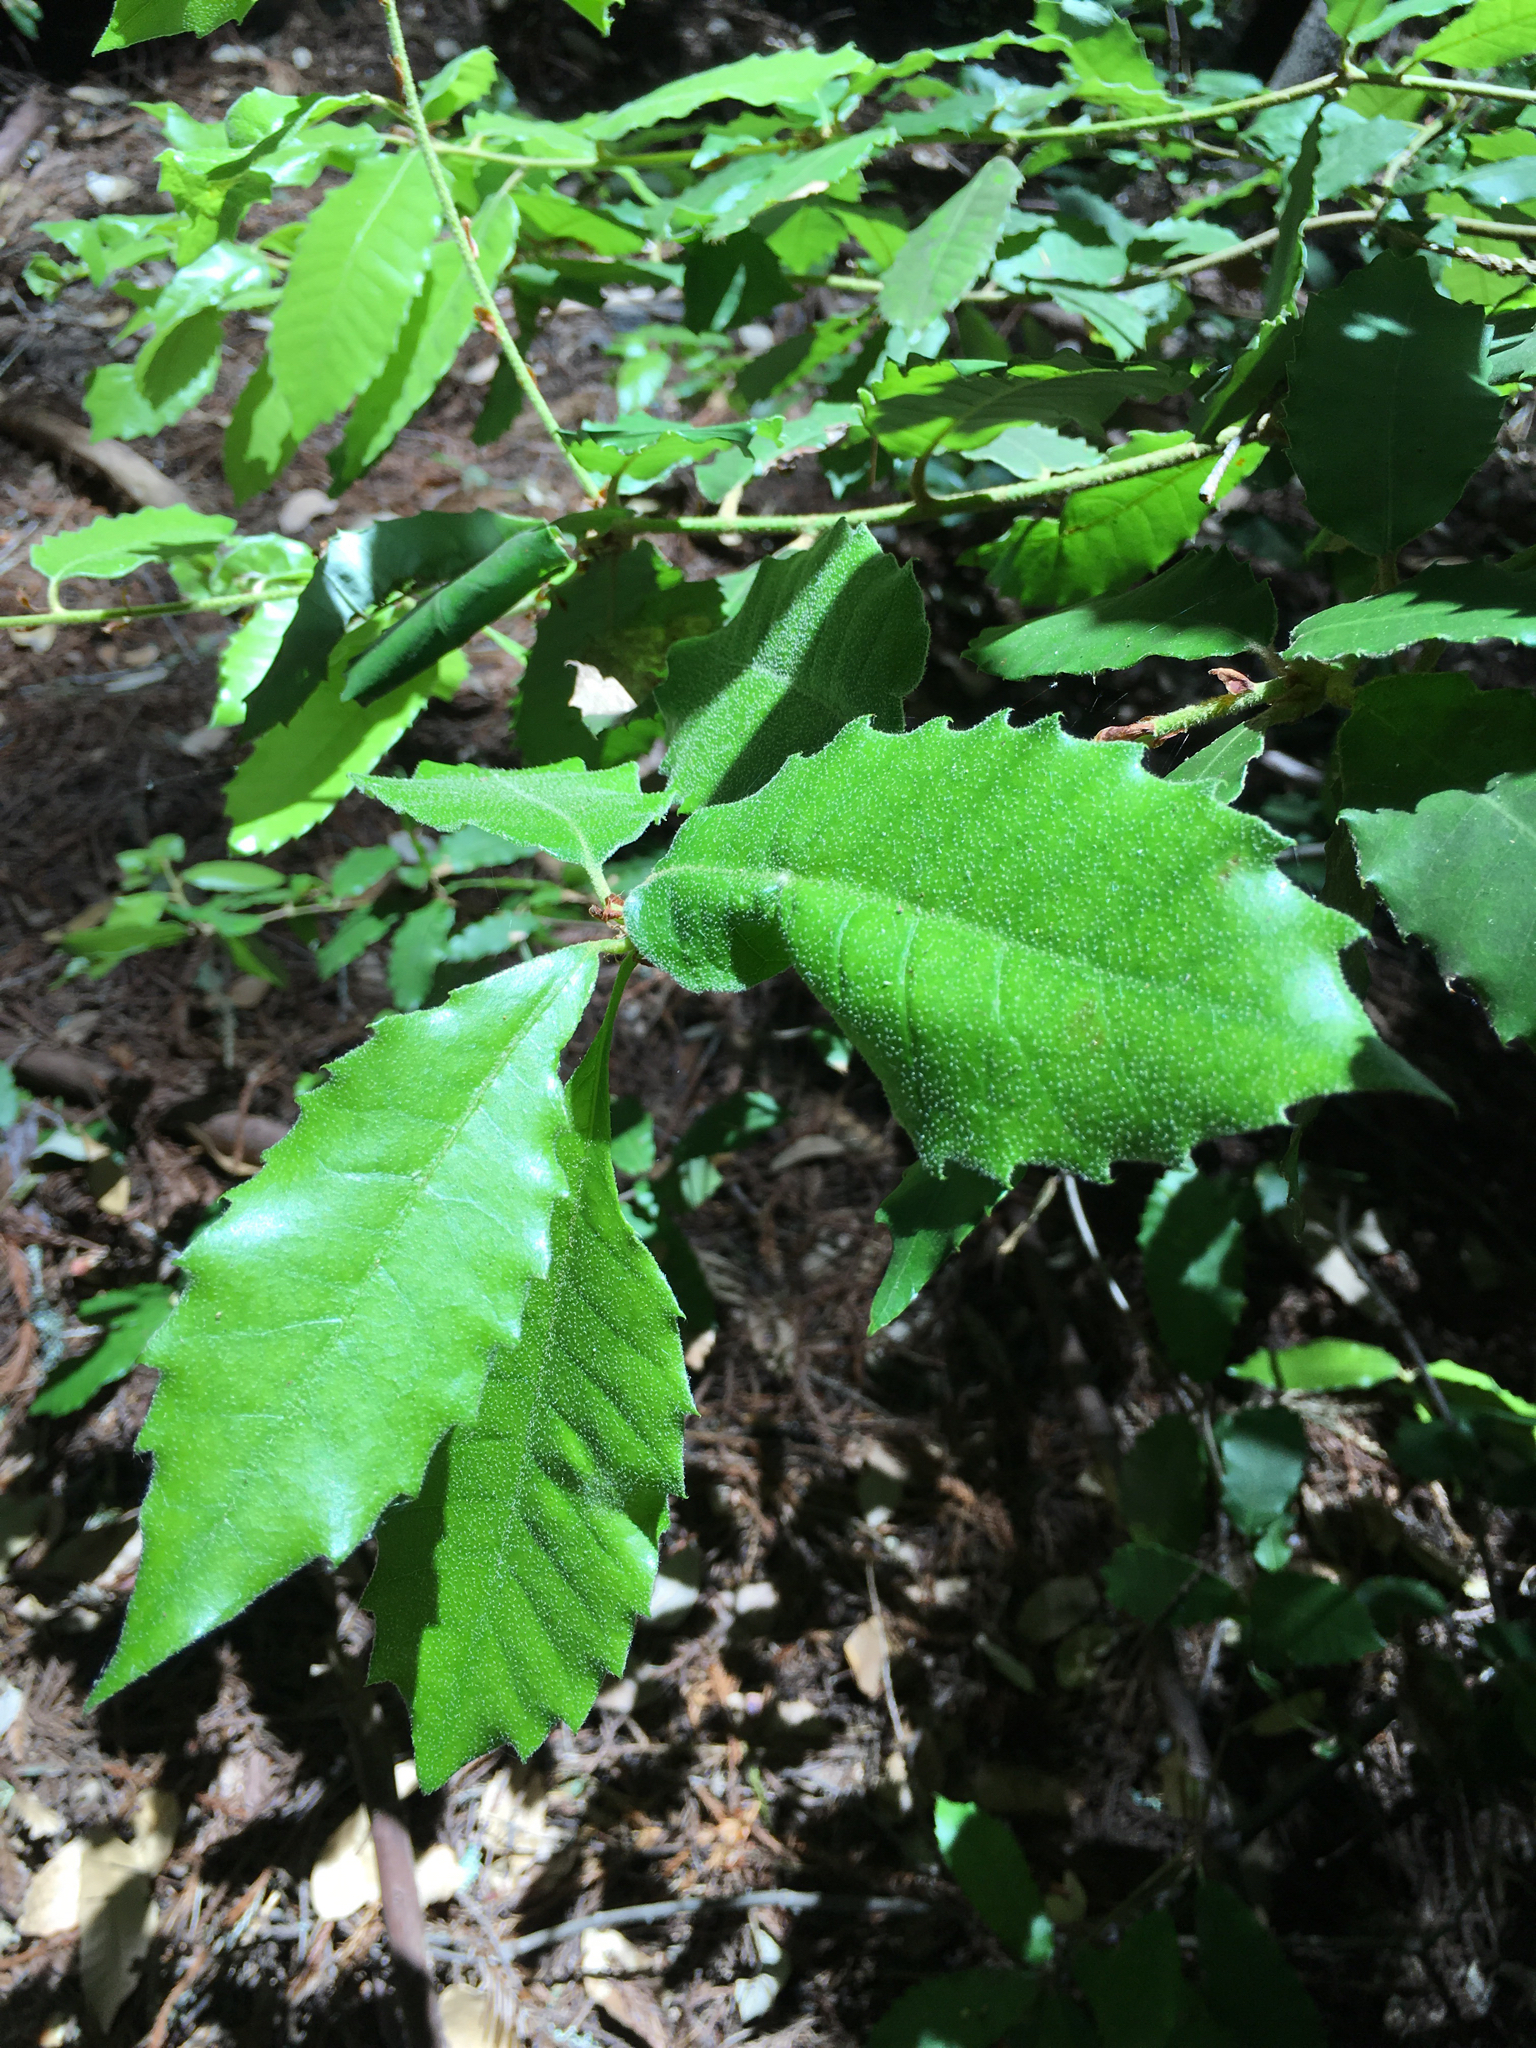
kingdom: Plantae
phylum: Tracheophyta
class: Magnoliopsida
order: Fagales
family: Fagaceae
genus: Notholithocarpus
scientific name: Notholithocarpus densiflorus
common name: Tan bark oak
